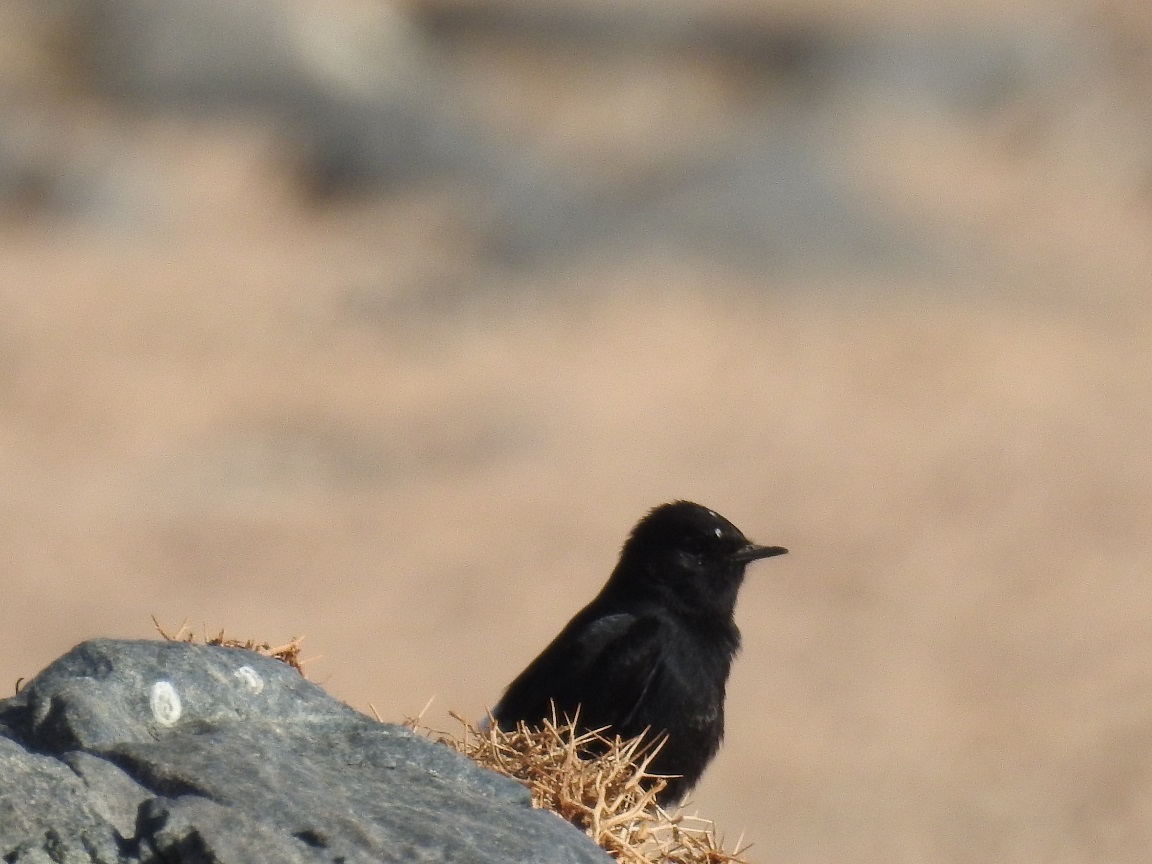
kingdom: Animalia
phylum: Chordata
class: Aves
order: Passeriformes
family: Muscicapidae
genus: Oenanthe
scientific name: Oenanthe leucopyga
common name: White-crowned wheatear
